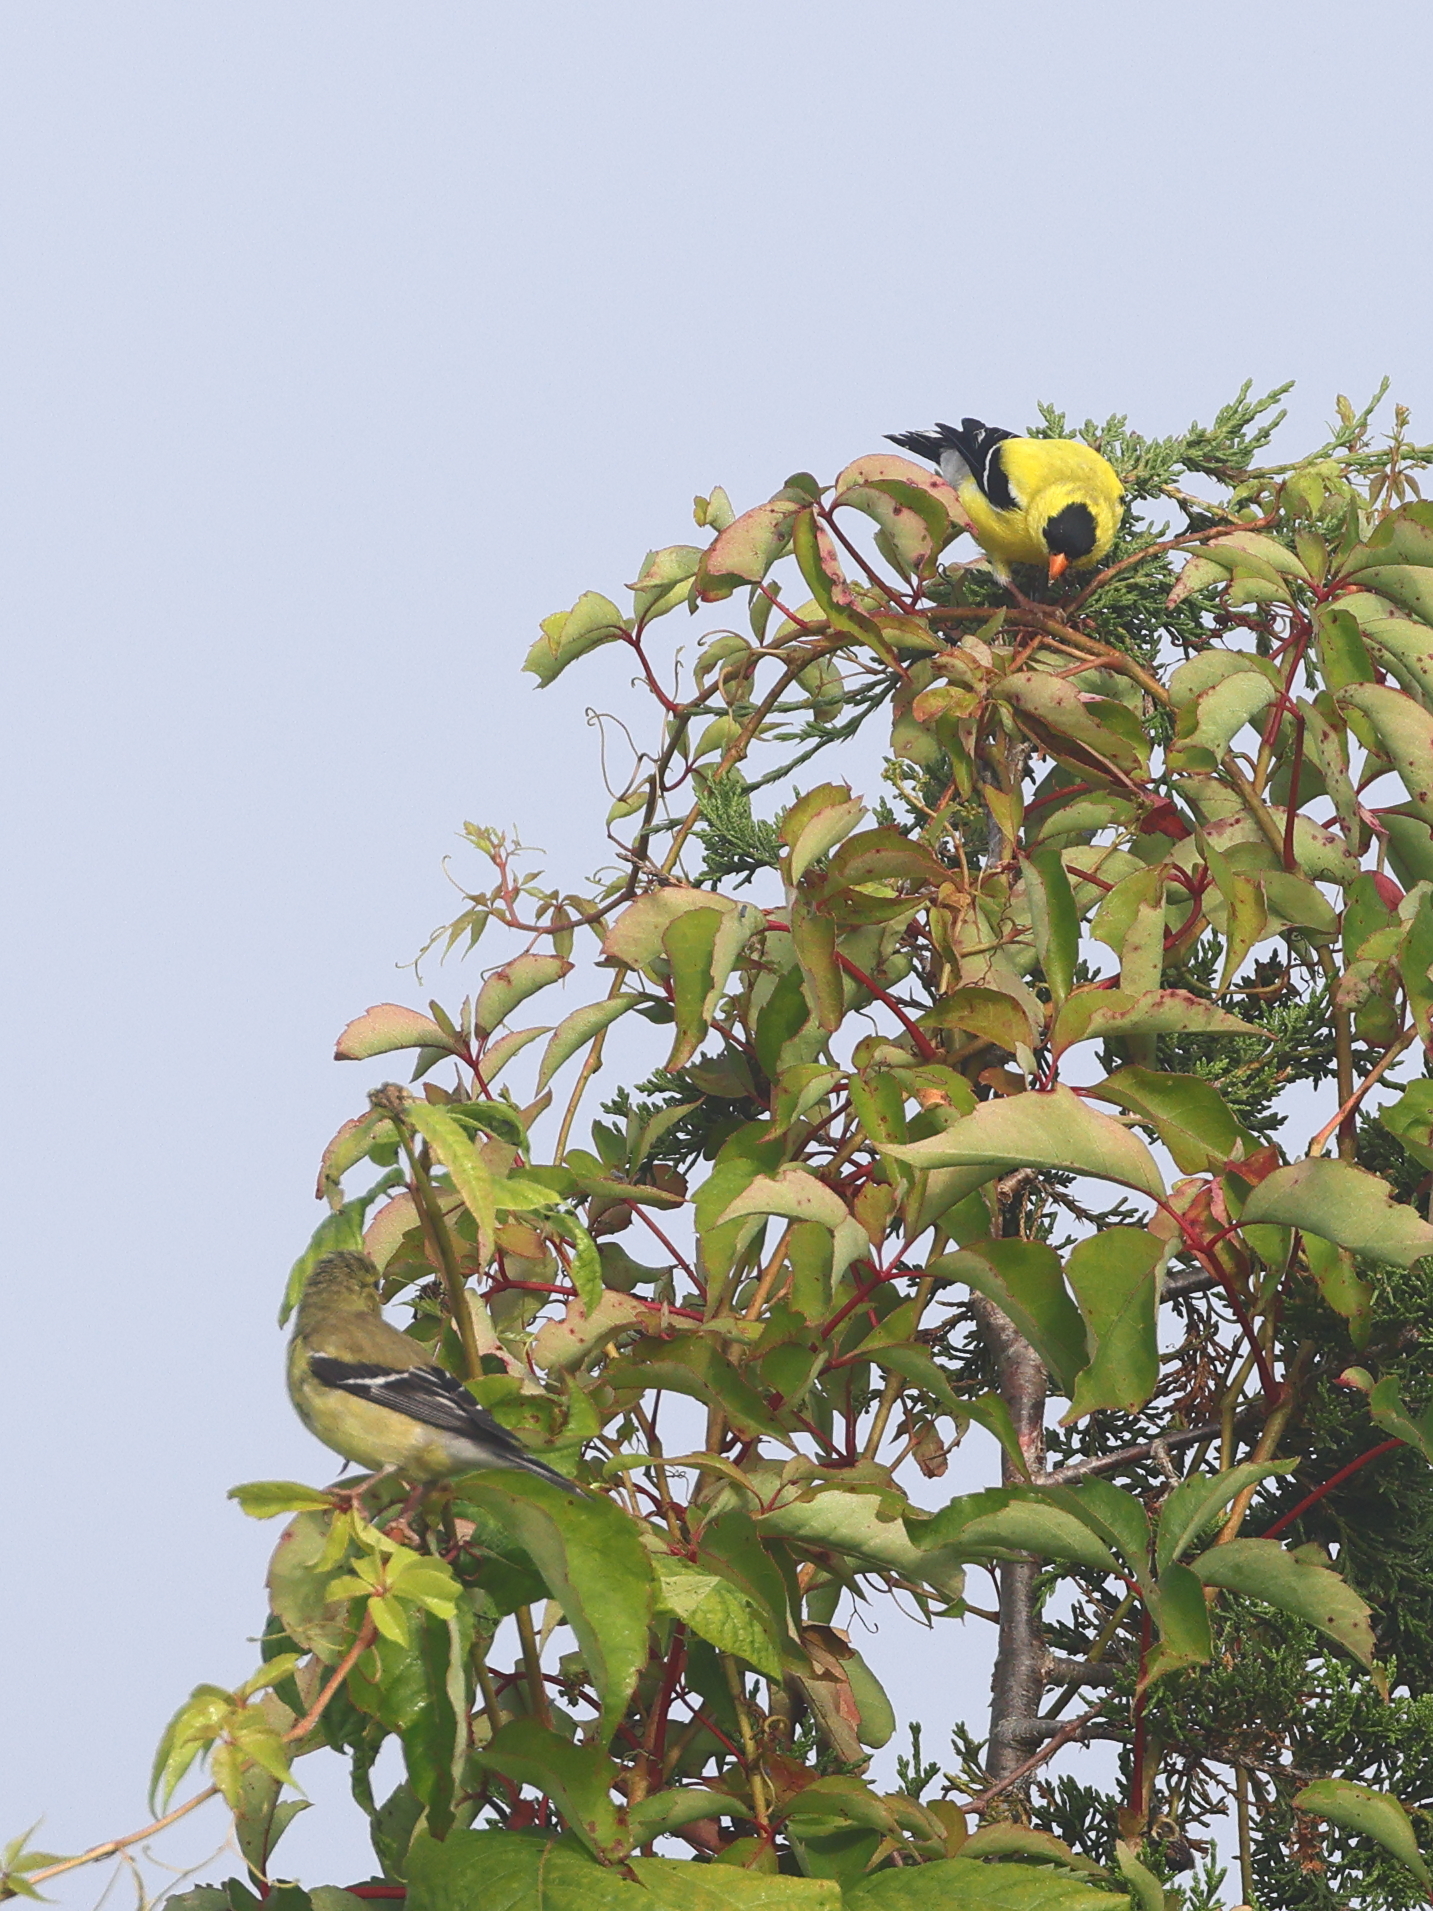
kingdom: Animalia
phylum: Chordata
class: Aves
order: Passeriformes
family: Fringillidae
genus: Spinus
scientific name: Spinus tristis
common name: American goldfinch
